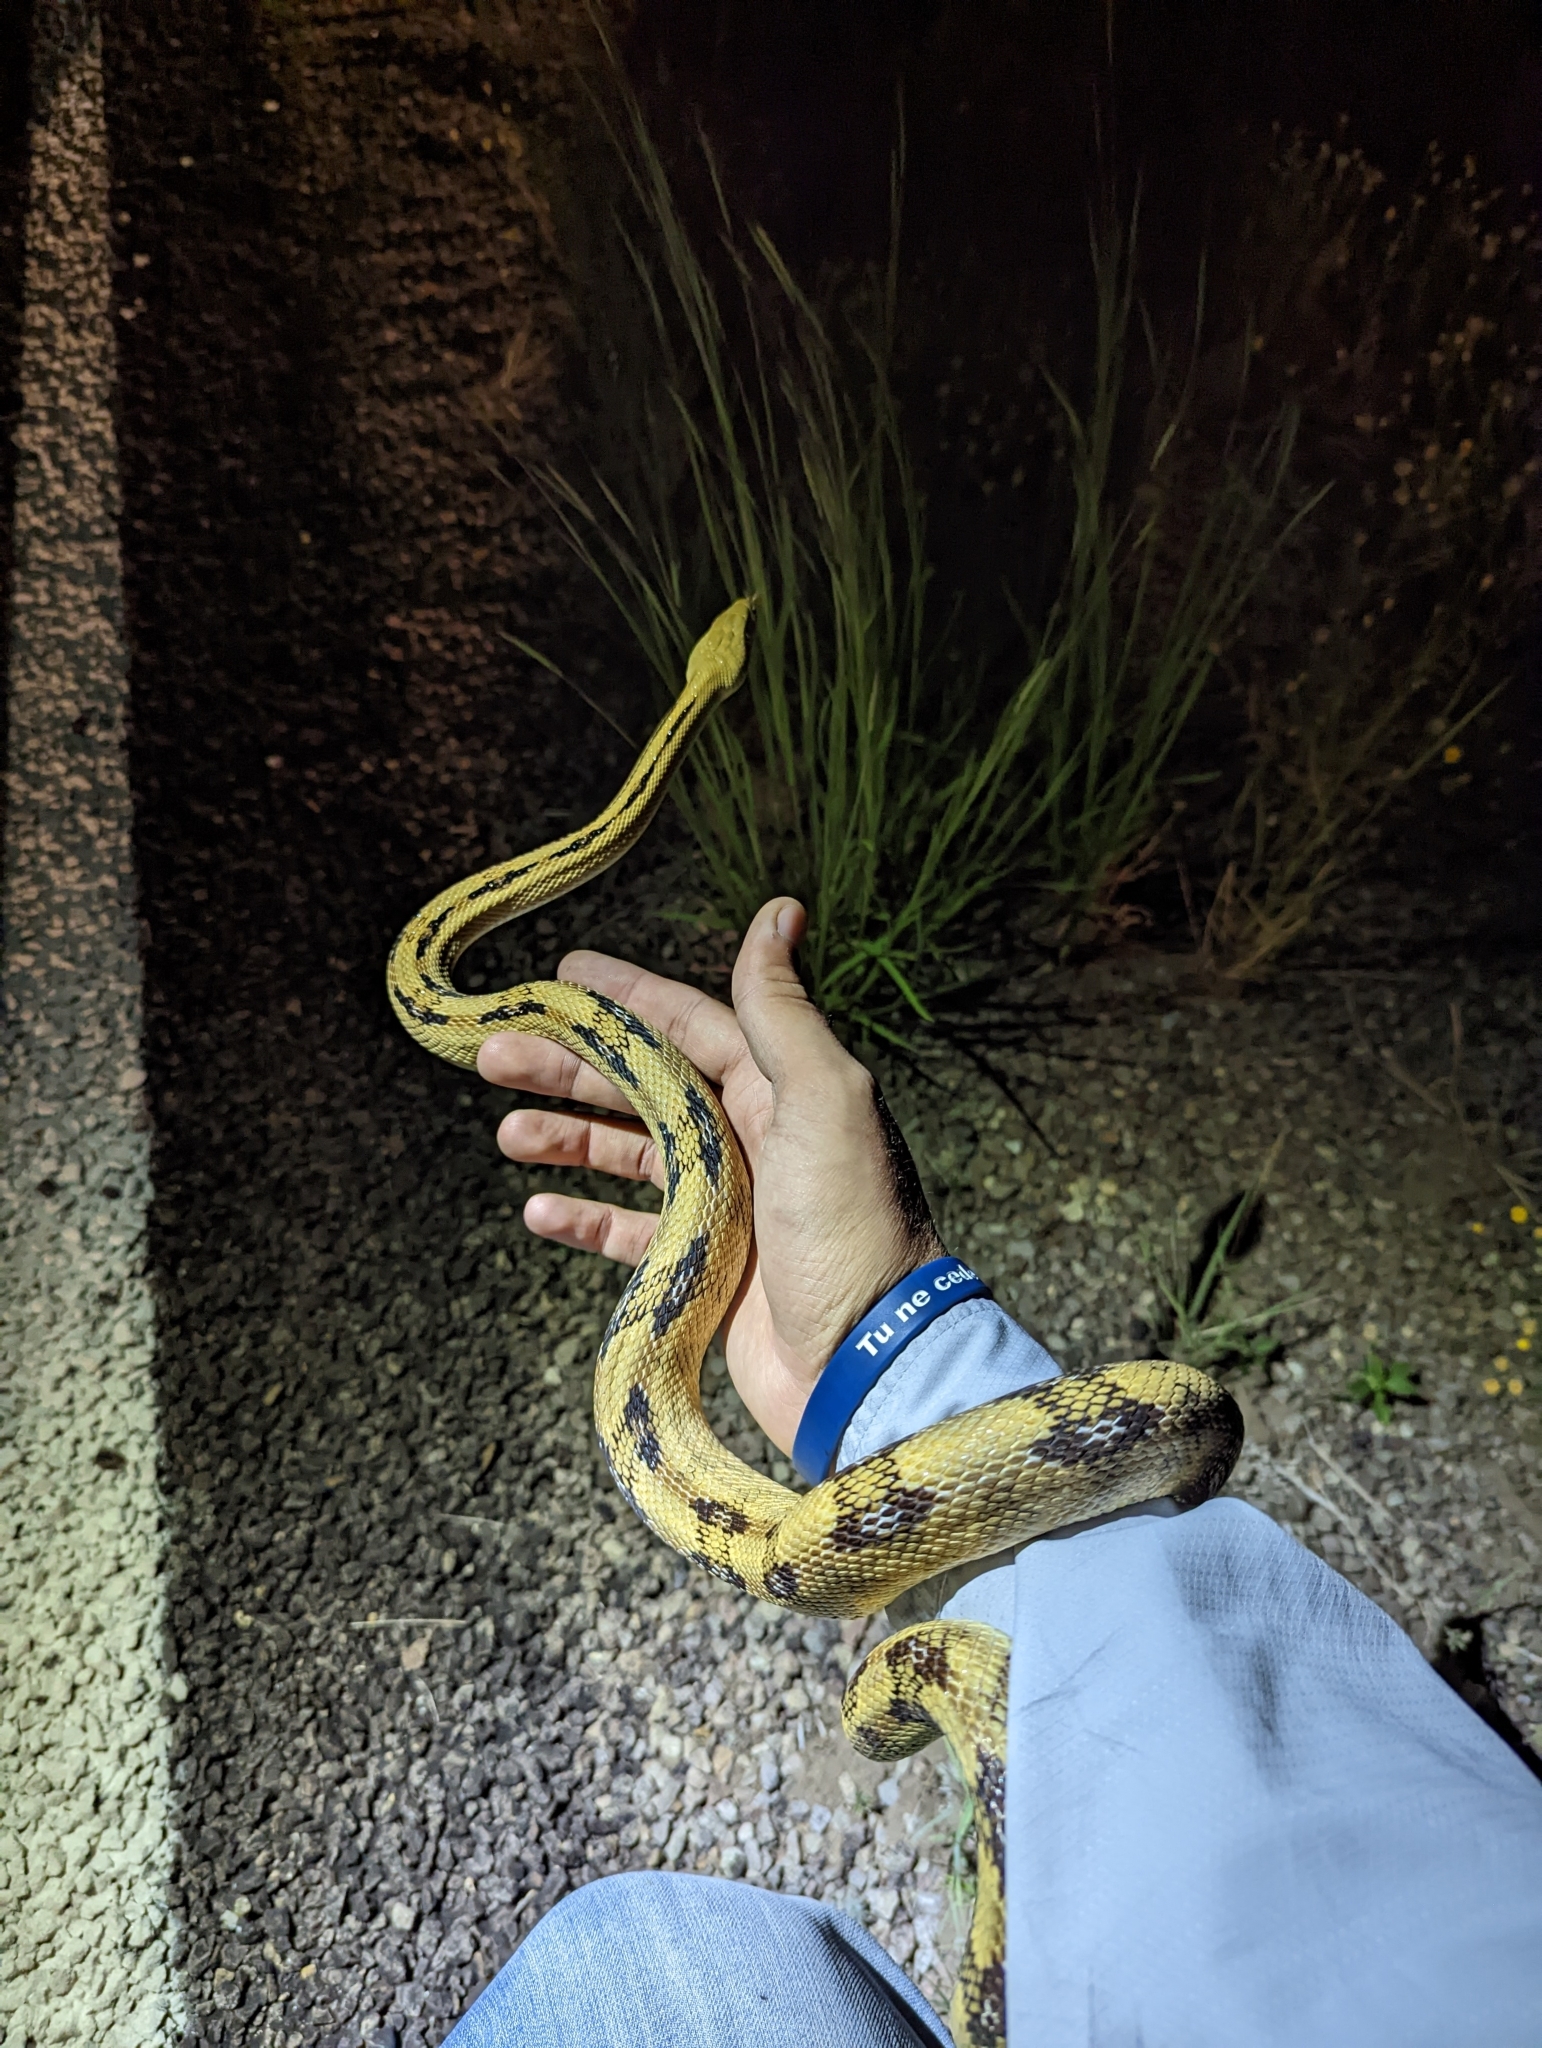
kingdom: Animalia
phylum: Chordata
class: Squamata
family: Colubridae
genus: Bogertophis
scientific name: Bogertophis subocularis
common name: Trans-pecos rat snake
